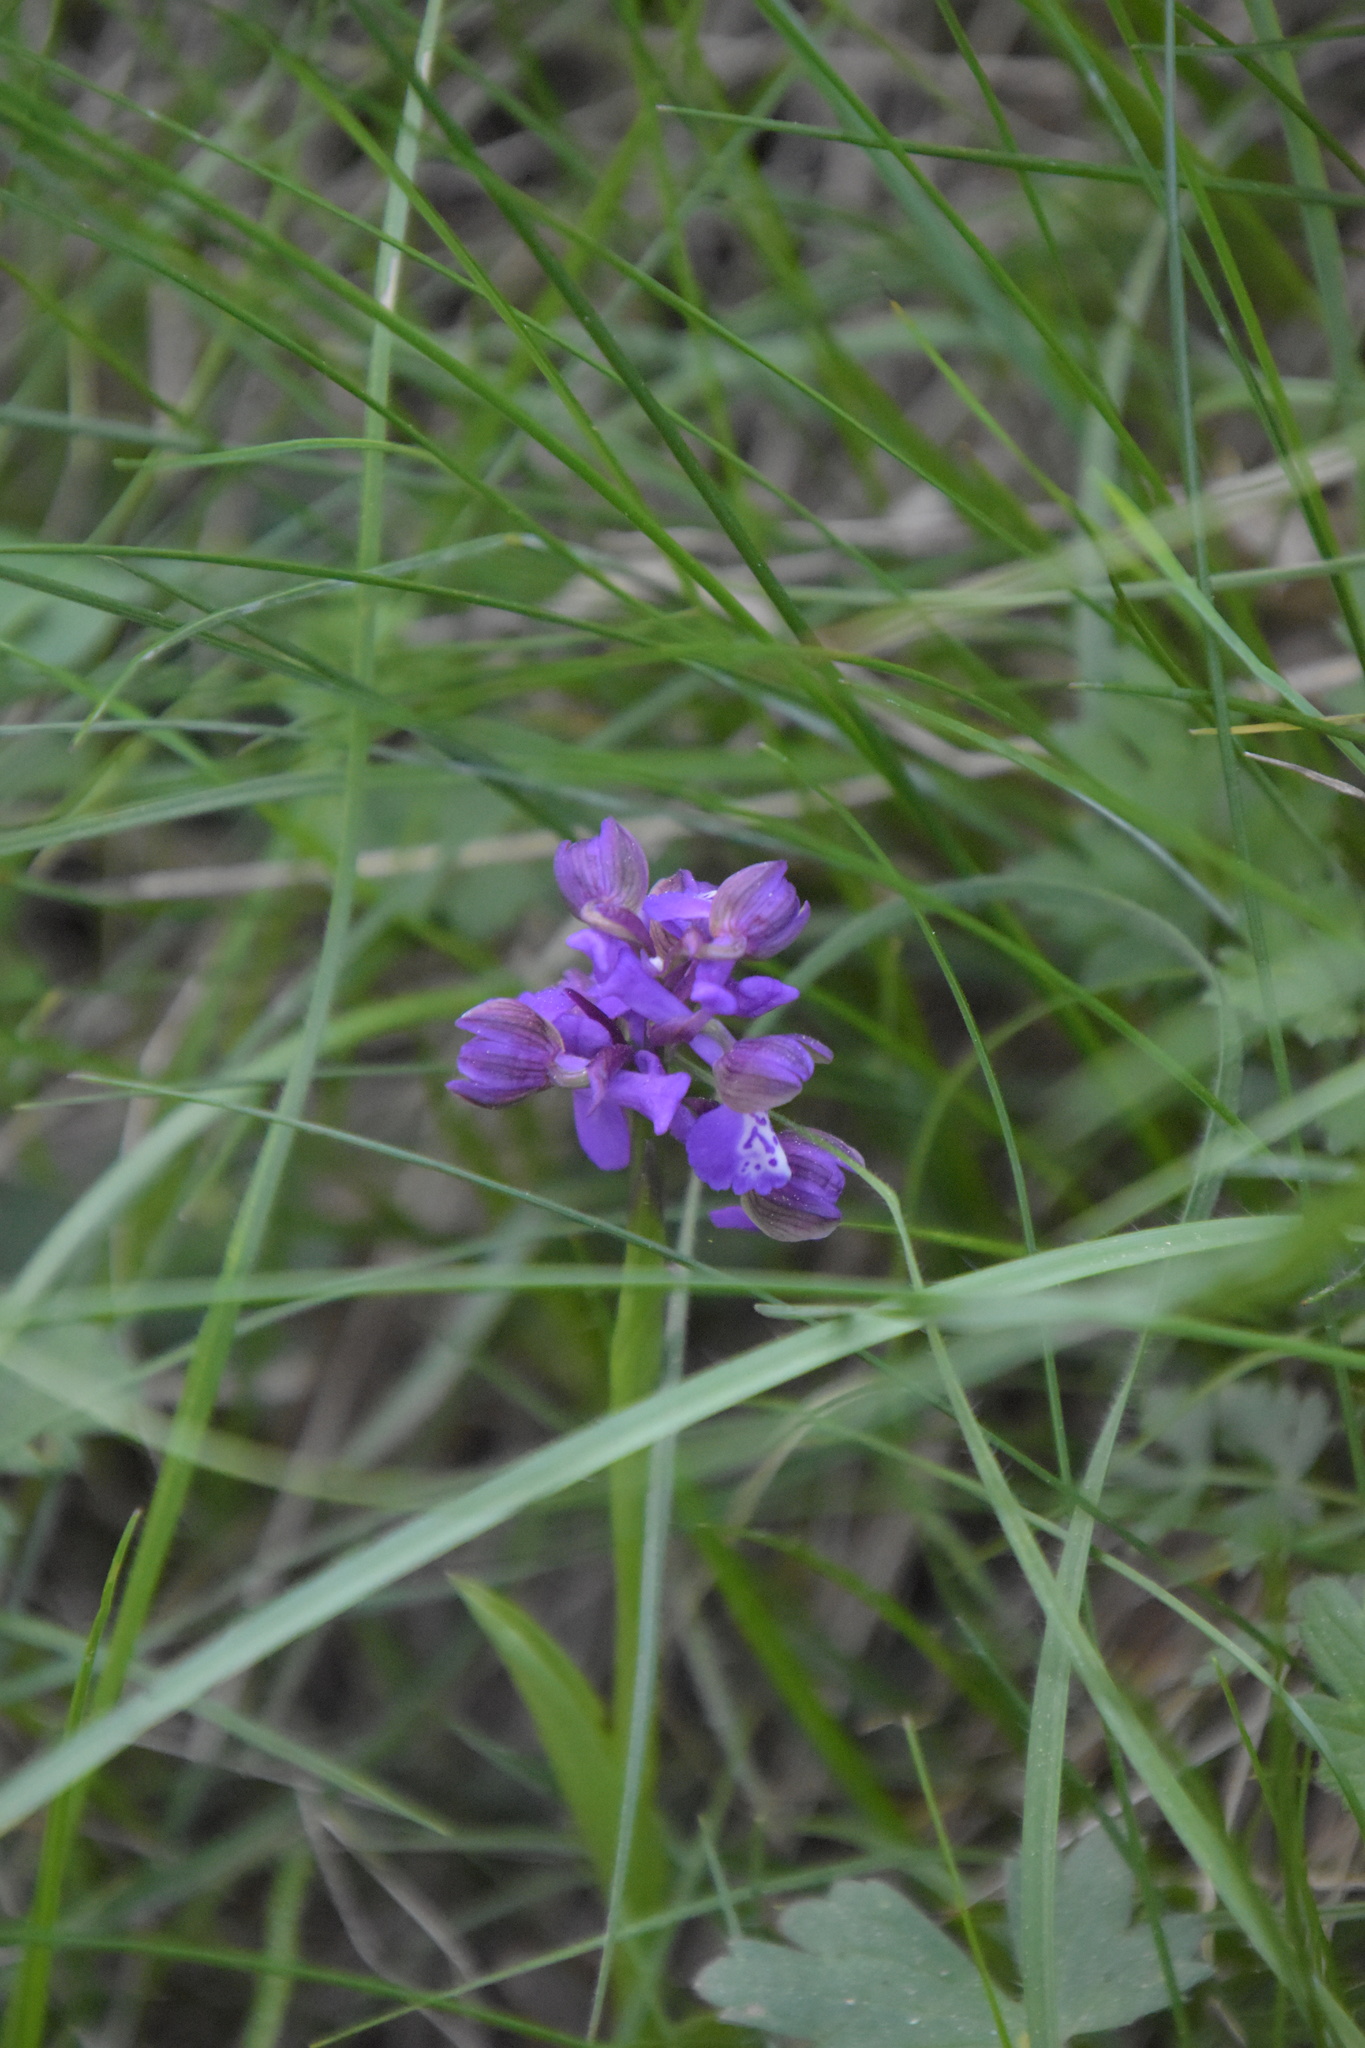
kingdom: Plantae
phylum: Tracheophyta
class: Liliopsida
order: Asparagales
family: Orchidaceae
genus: Anacamptis
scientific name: Anacamptis morio
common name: Green-winged orchid
